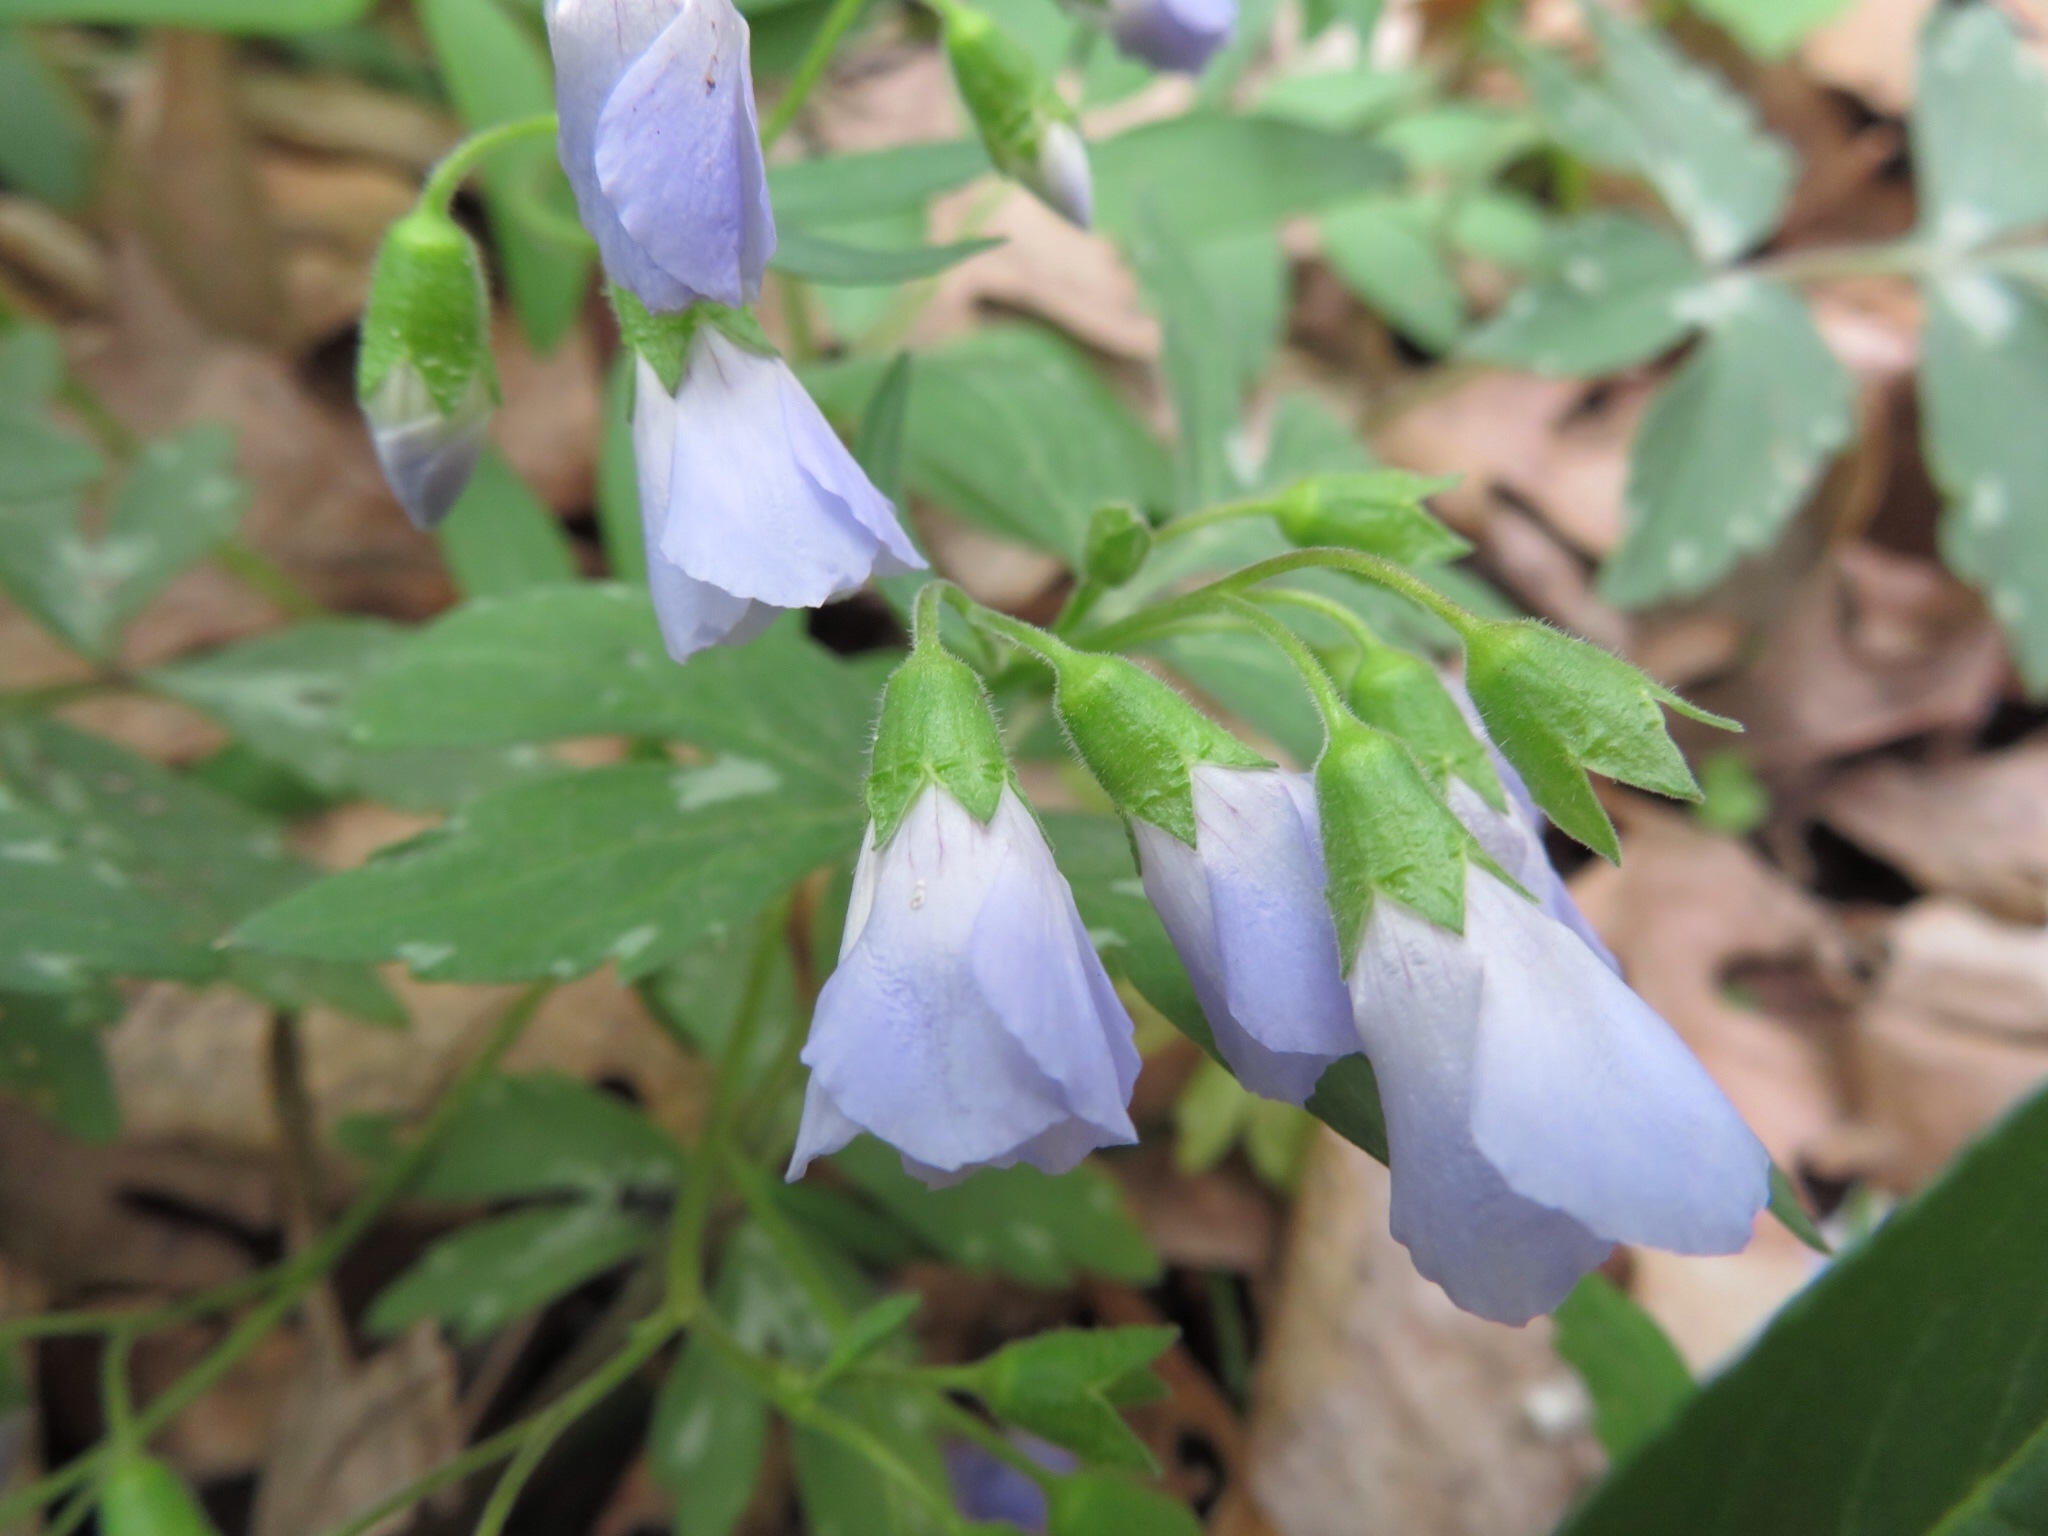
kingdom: Plantae
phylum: Tracheophyta
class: Magnoliopsida
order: Ericales
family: Polemoniaceae
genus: Polemonium
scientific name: Polemonium reptans
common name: Creeping jacob's-ladder
